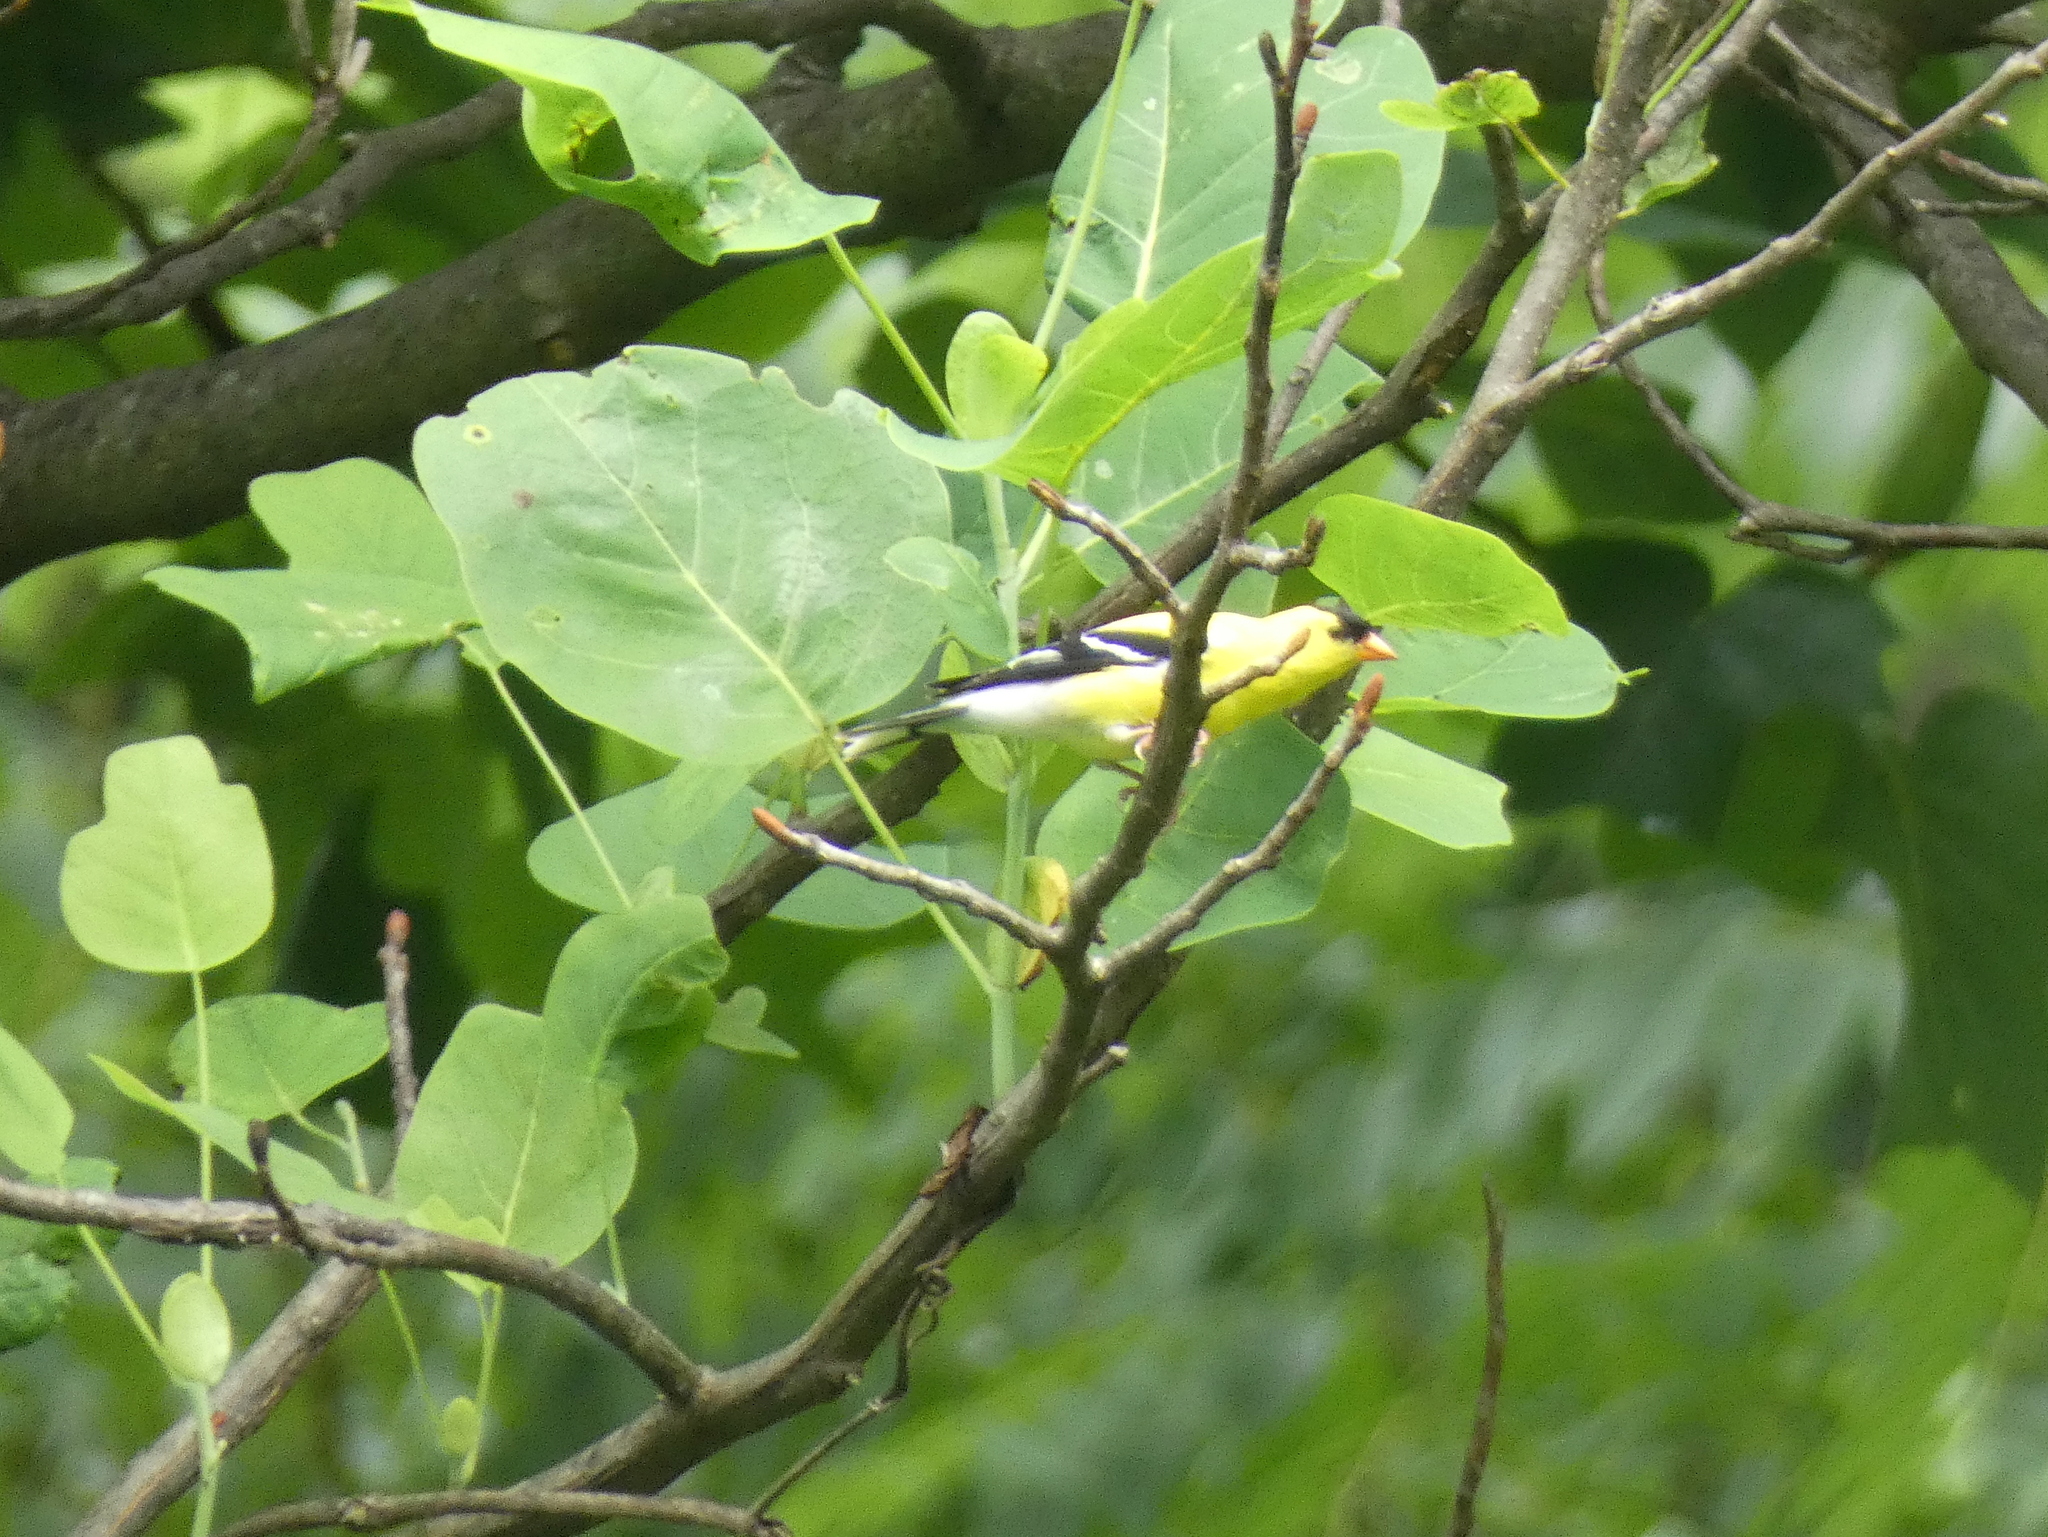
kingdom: Animalia
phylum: Chordata
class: Aves
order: Passeriformes
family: Fringillidae
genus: Spinus
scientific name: Spinus tristis
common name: American goldfinch
